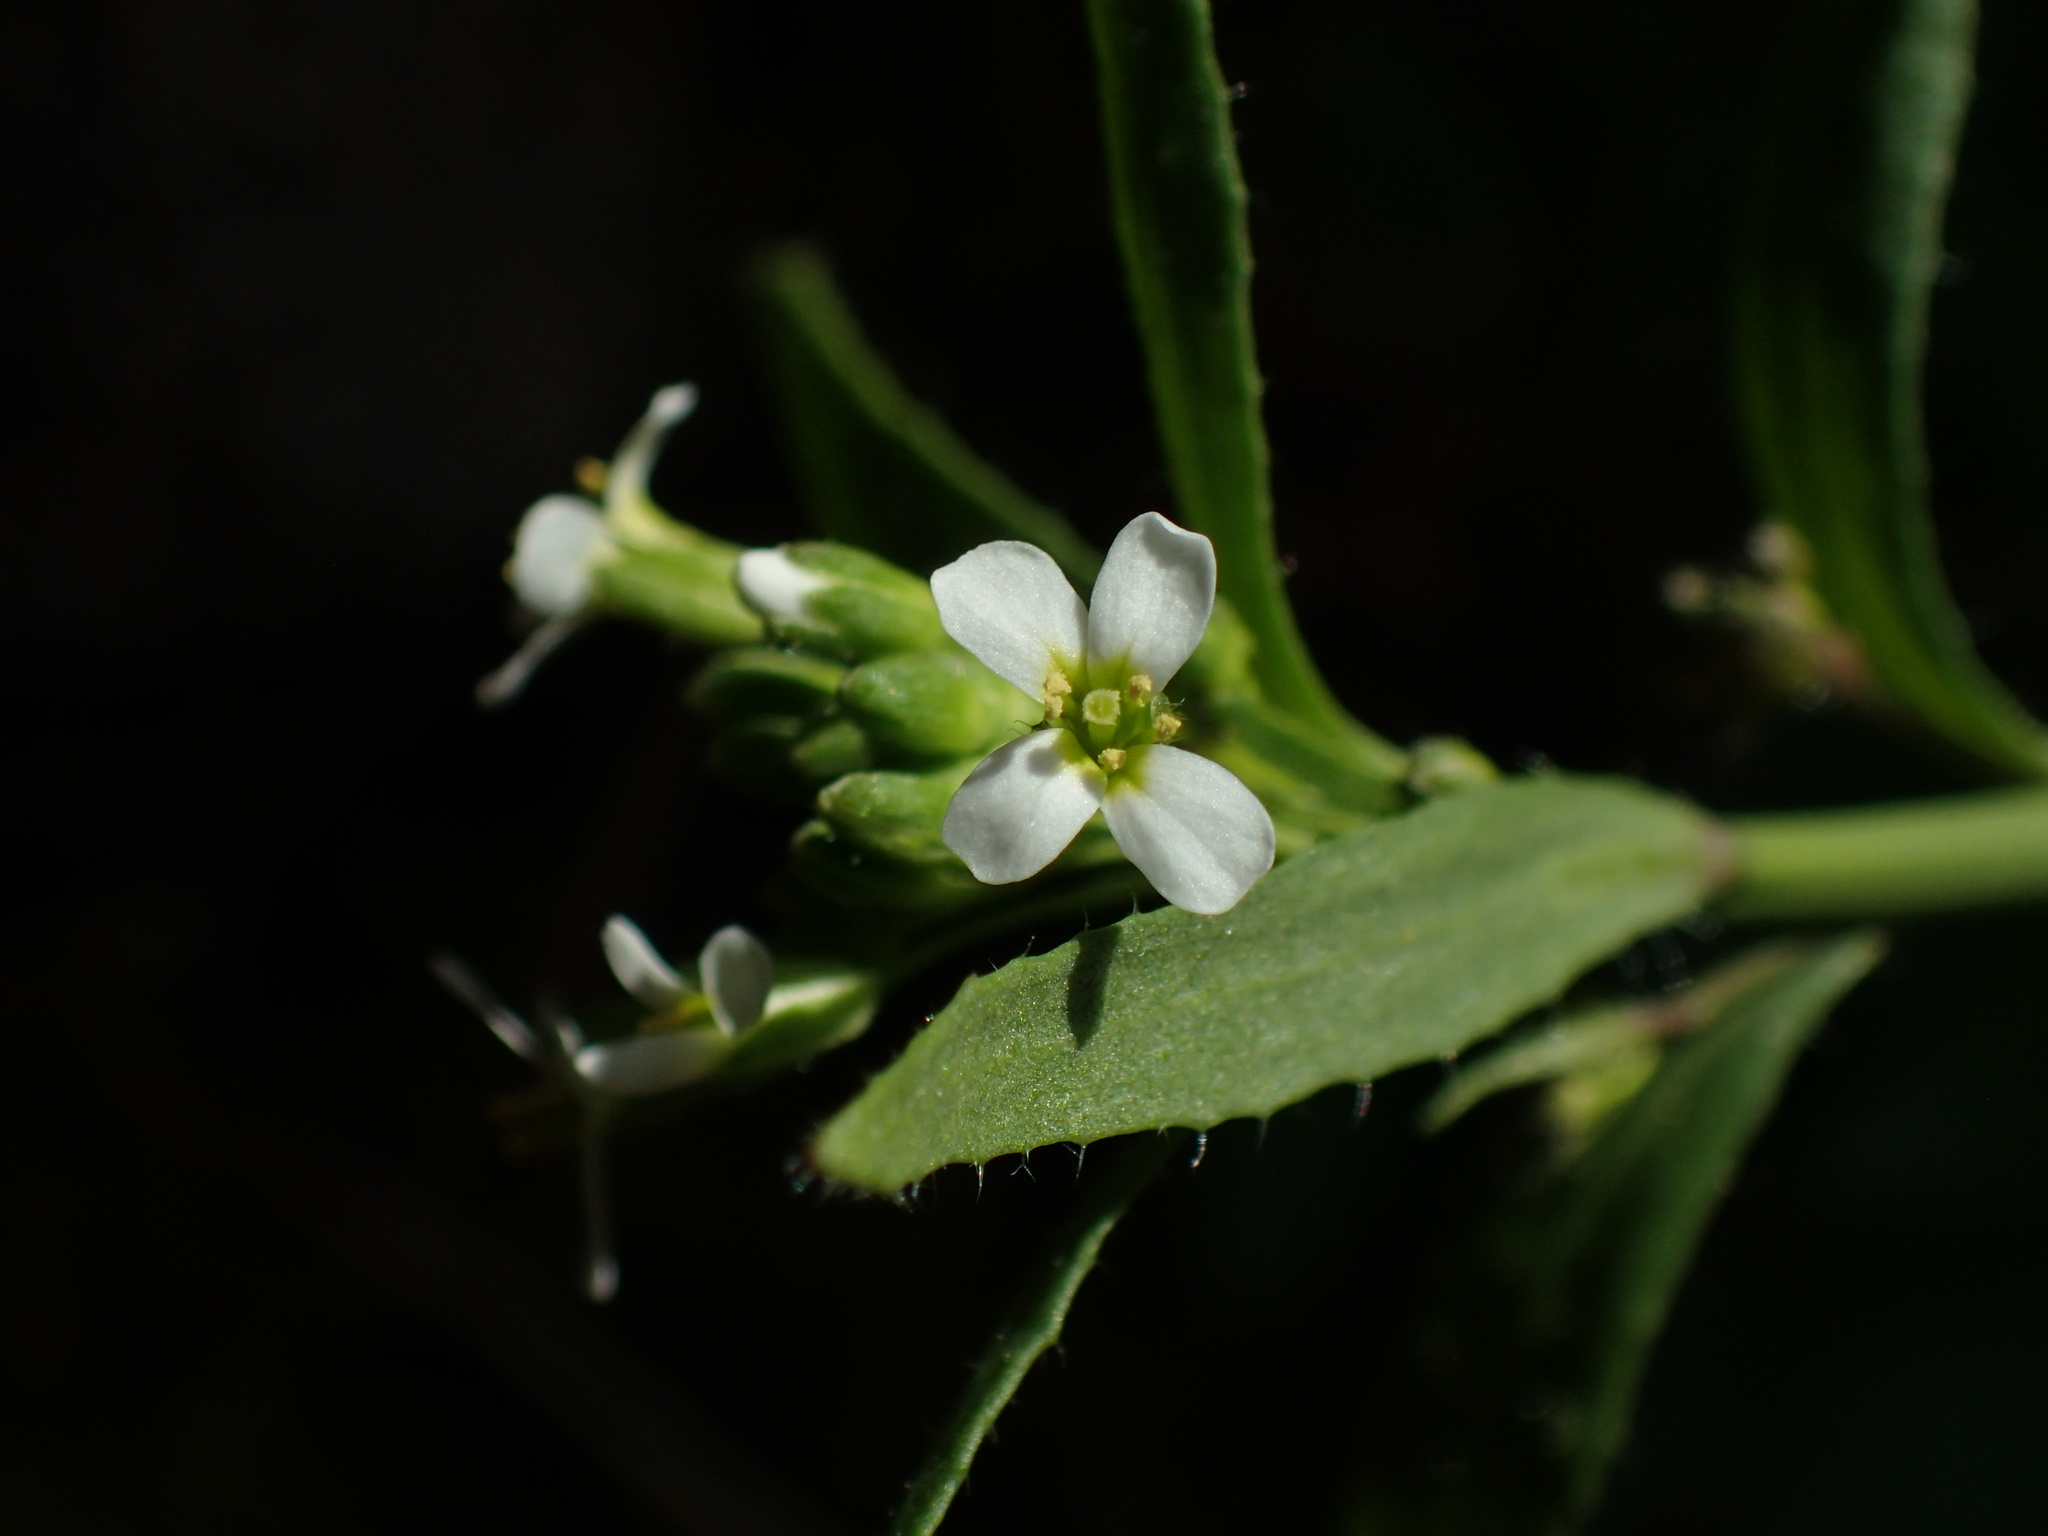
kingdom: Plantae
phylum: Tracheophyta
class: Magnoliopsida
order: Brassicales
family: Brassicaceae
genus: Arabidopsis
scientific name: Arabidopsis thaliana
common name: Thale cress
